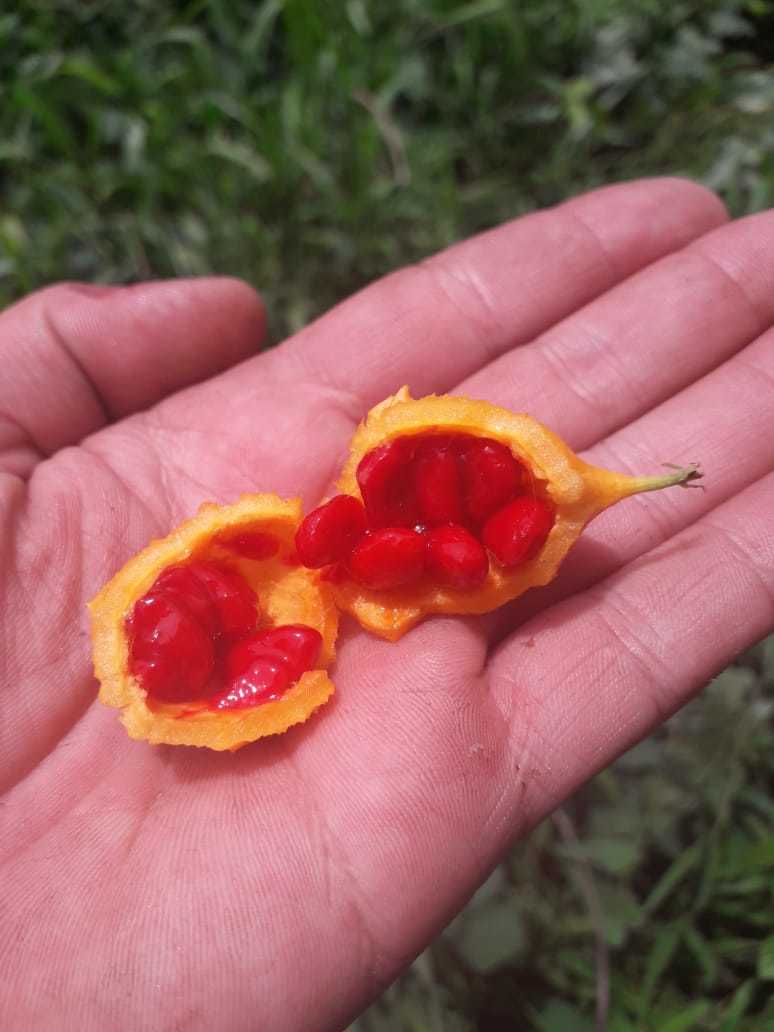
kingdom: Plantae
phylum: Tracheophyta
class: Magnoliopsida
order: Cucurbitales
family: Cucurbitaceae
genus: Momordica
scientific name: Momordica charantia
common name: Balsampear
